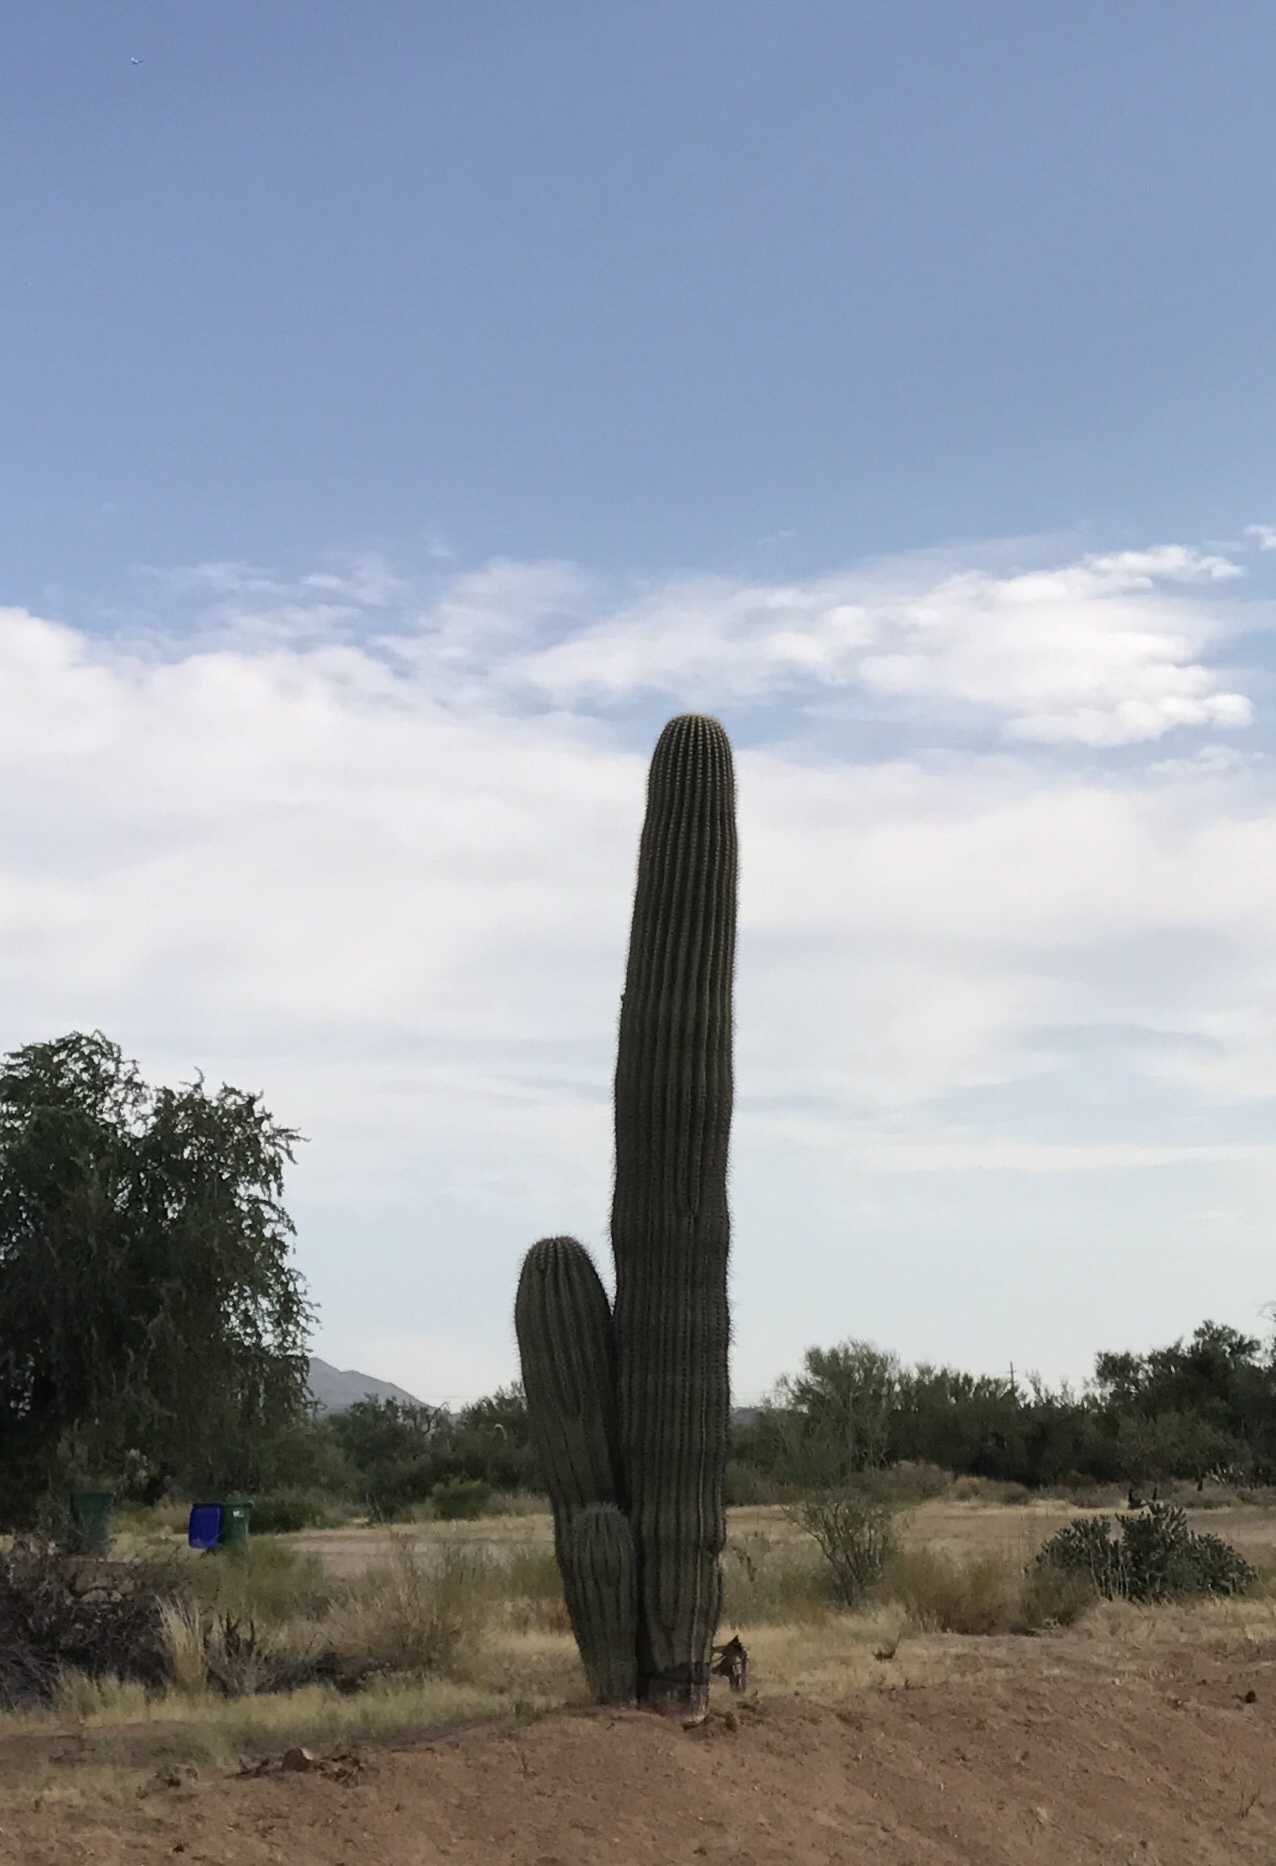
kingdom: Plantae
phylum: Tracheophyta
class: Magnoliopsida
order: Caryophyllales
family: Cactaceae
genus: Carnegiea
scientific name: Carnegiea gigantea
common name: Saguaro
